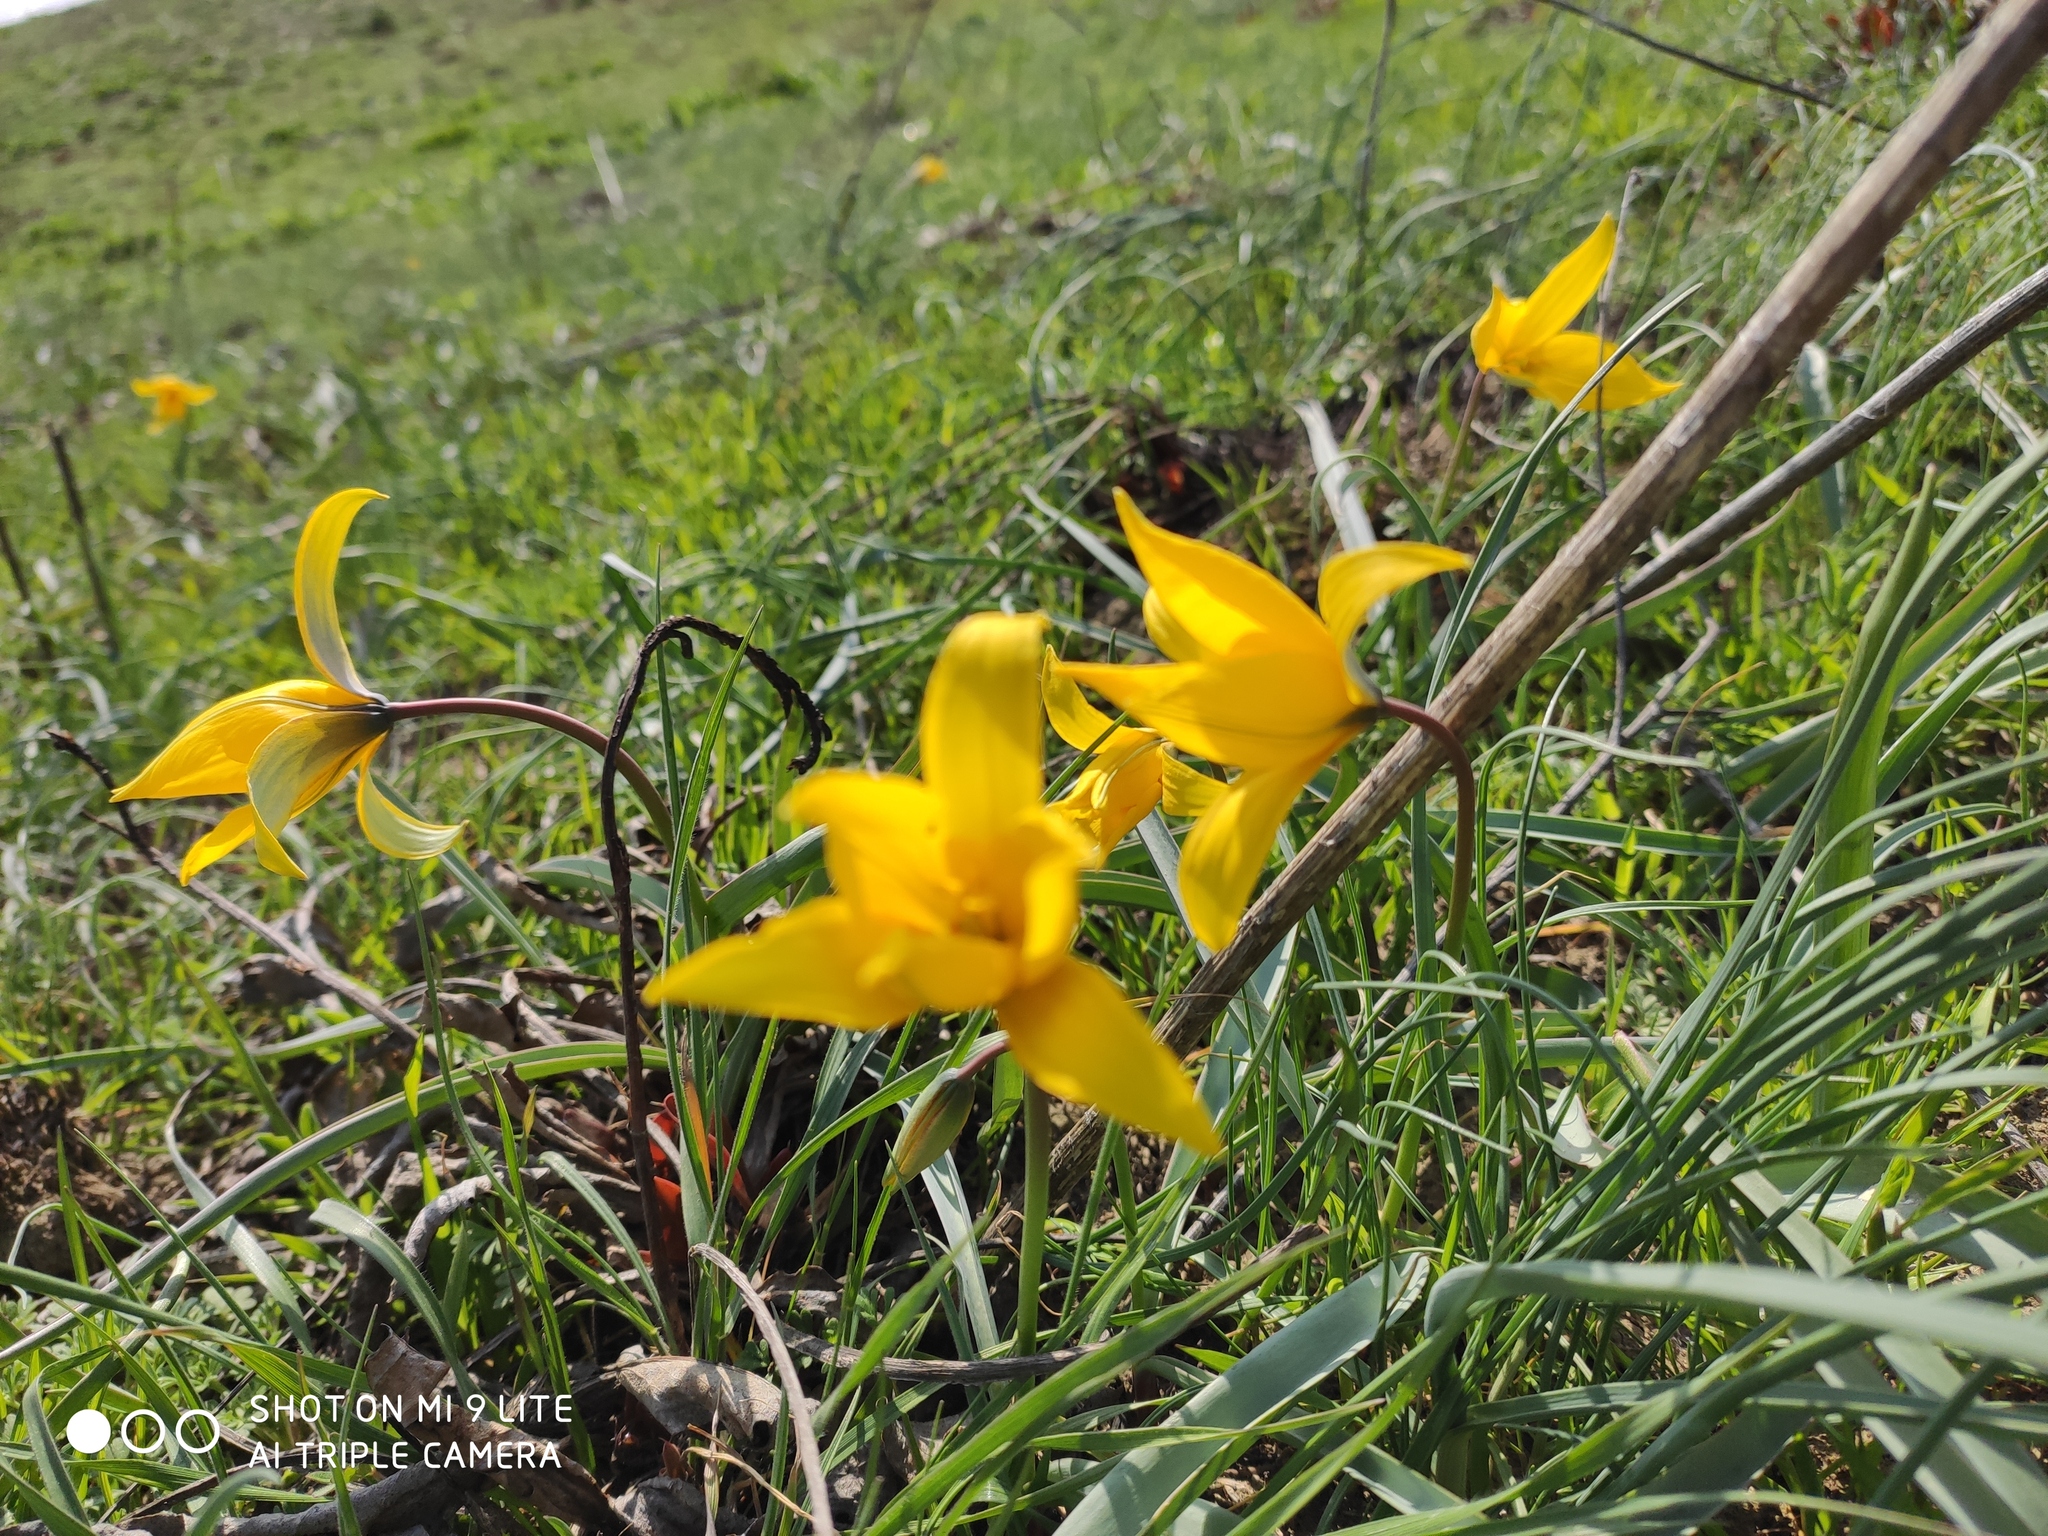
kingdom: Plantae
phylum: Tracheophyta
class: Liliopsida
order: Liliales
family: Liliaceae
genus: Tulipa
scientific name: Tulipa sylvestris
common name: Wild tulip
